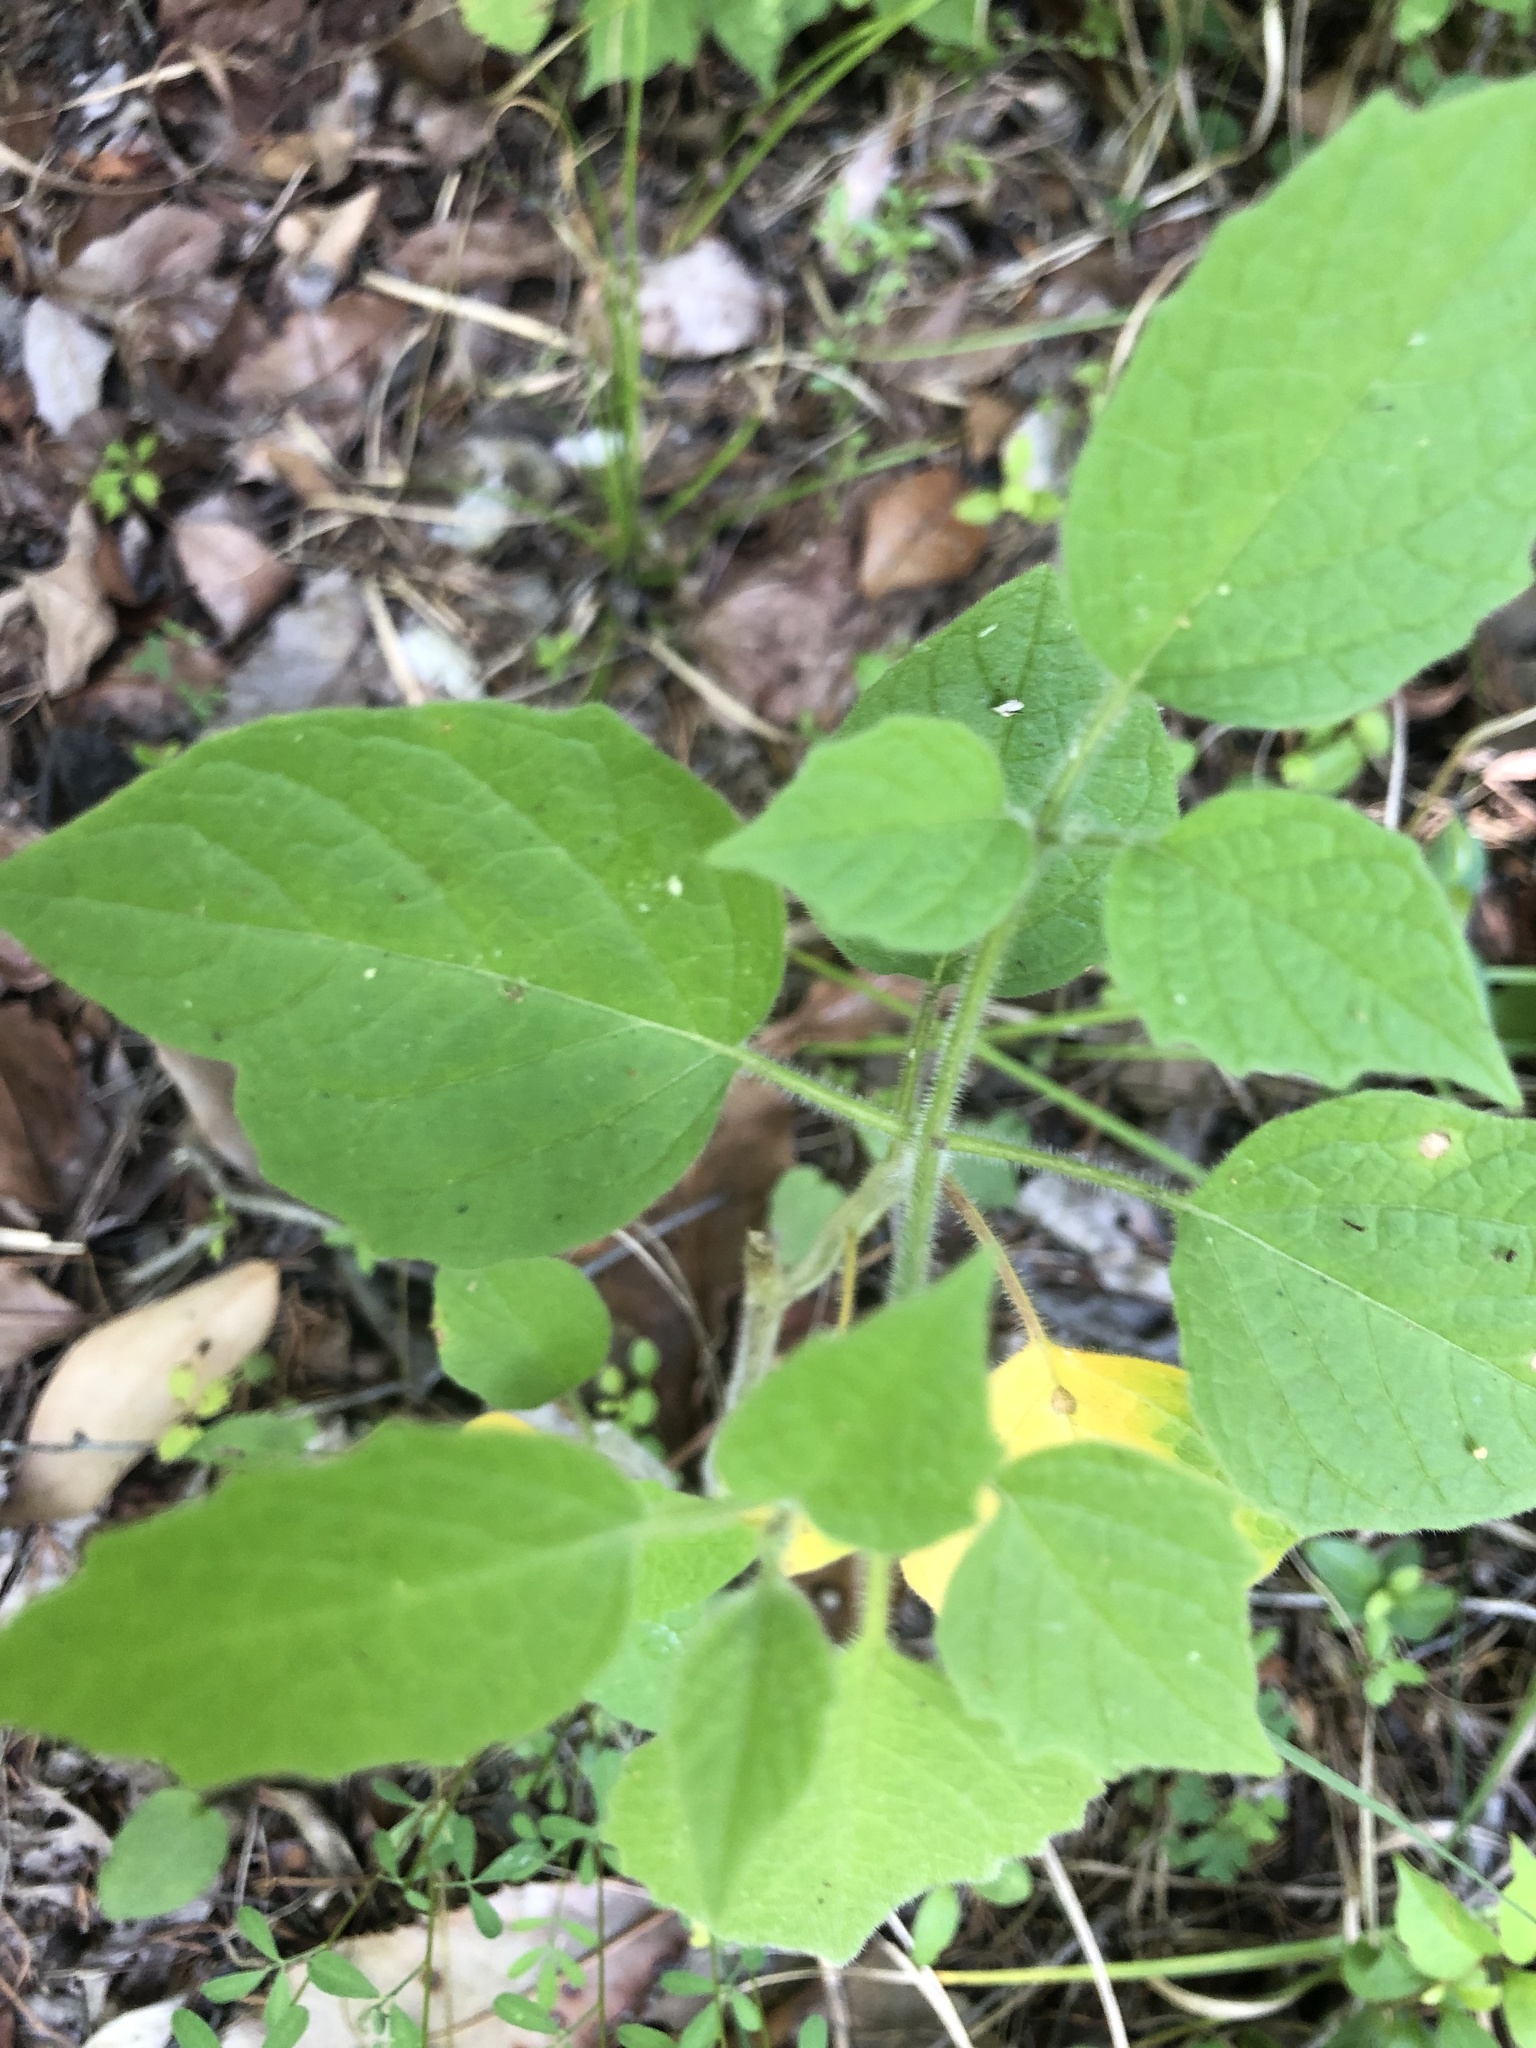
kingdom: Plantae
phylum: Tracheophyta
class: Magnoliopsida
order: Solanales
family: Solanaceae
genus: Physalis
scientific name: Physalis heterophylla
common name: Clammy ground-cherry
